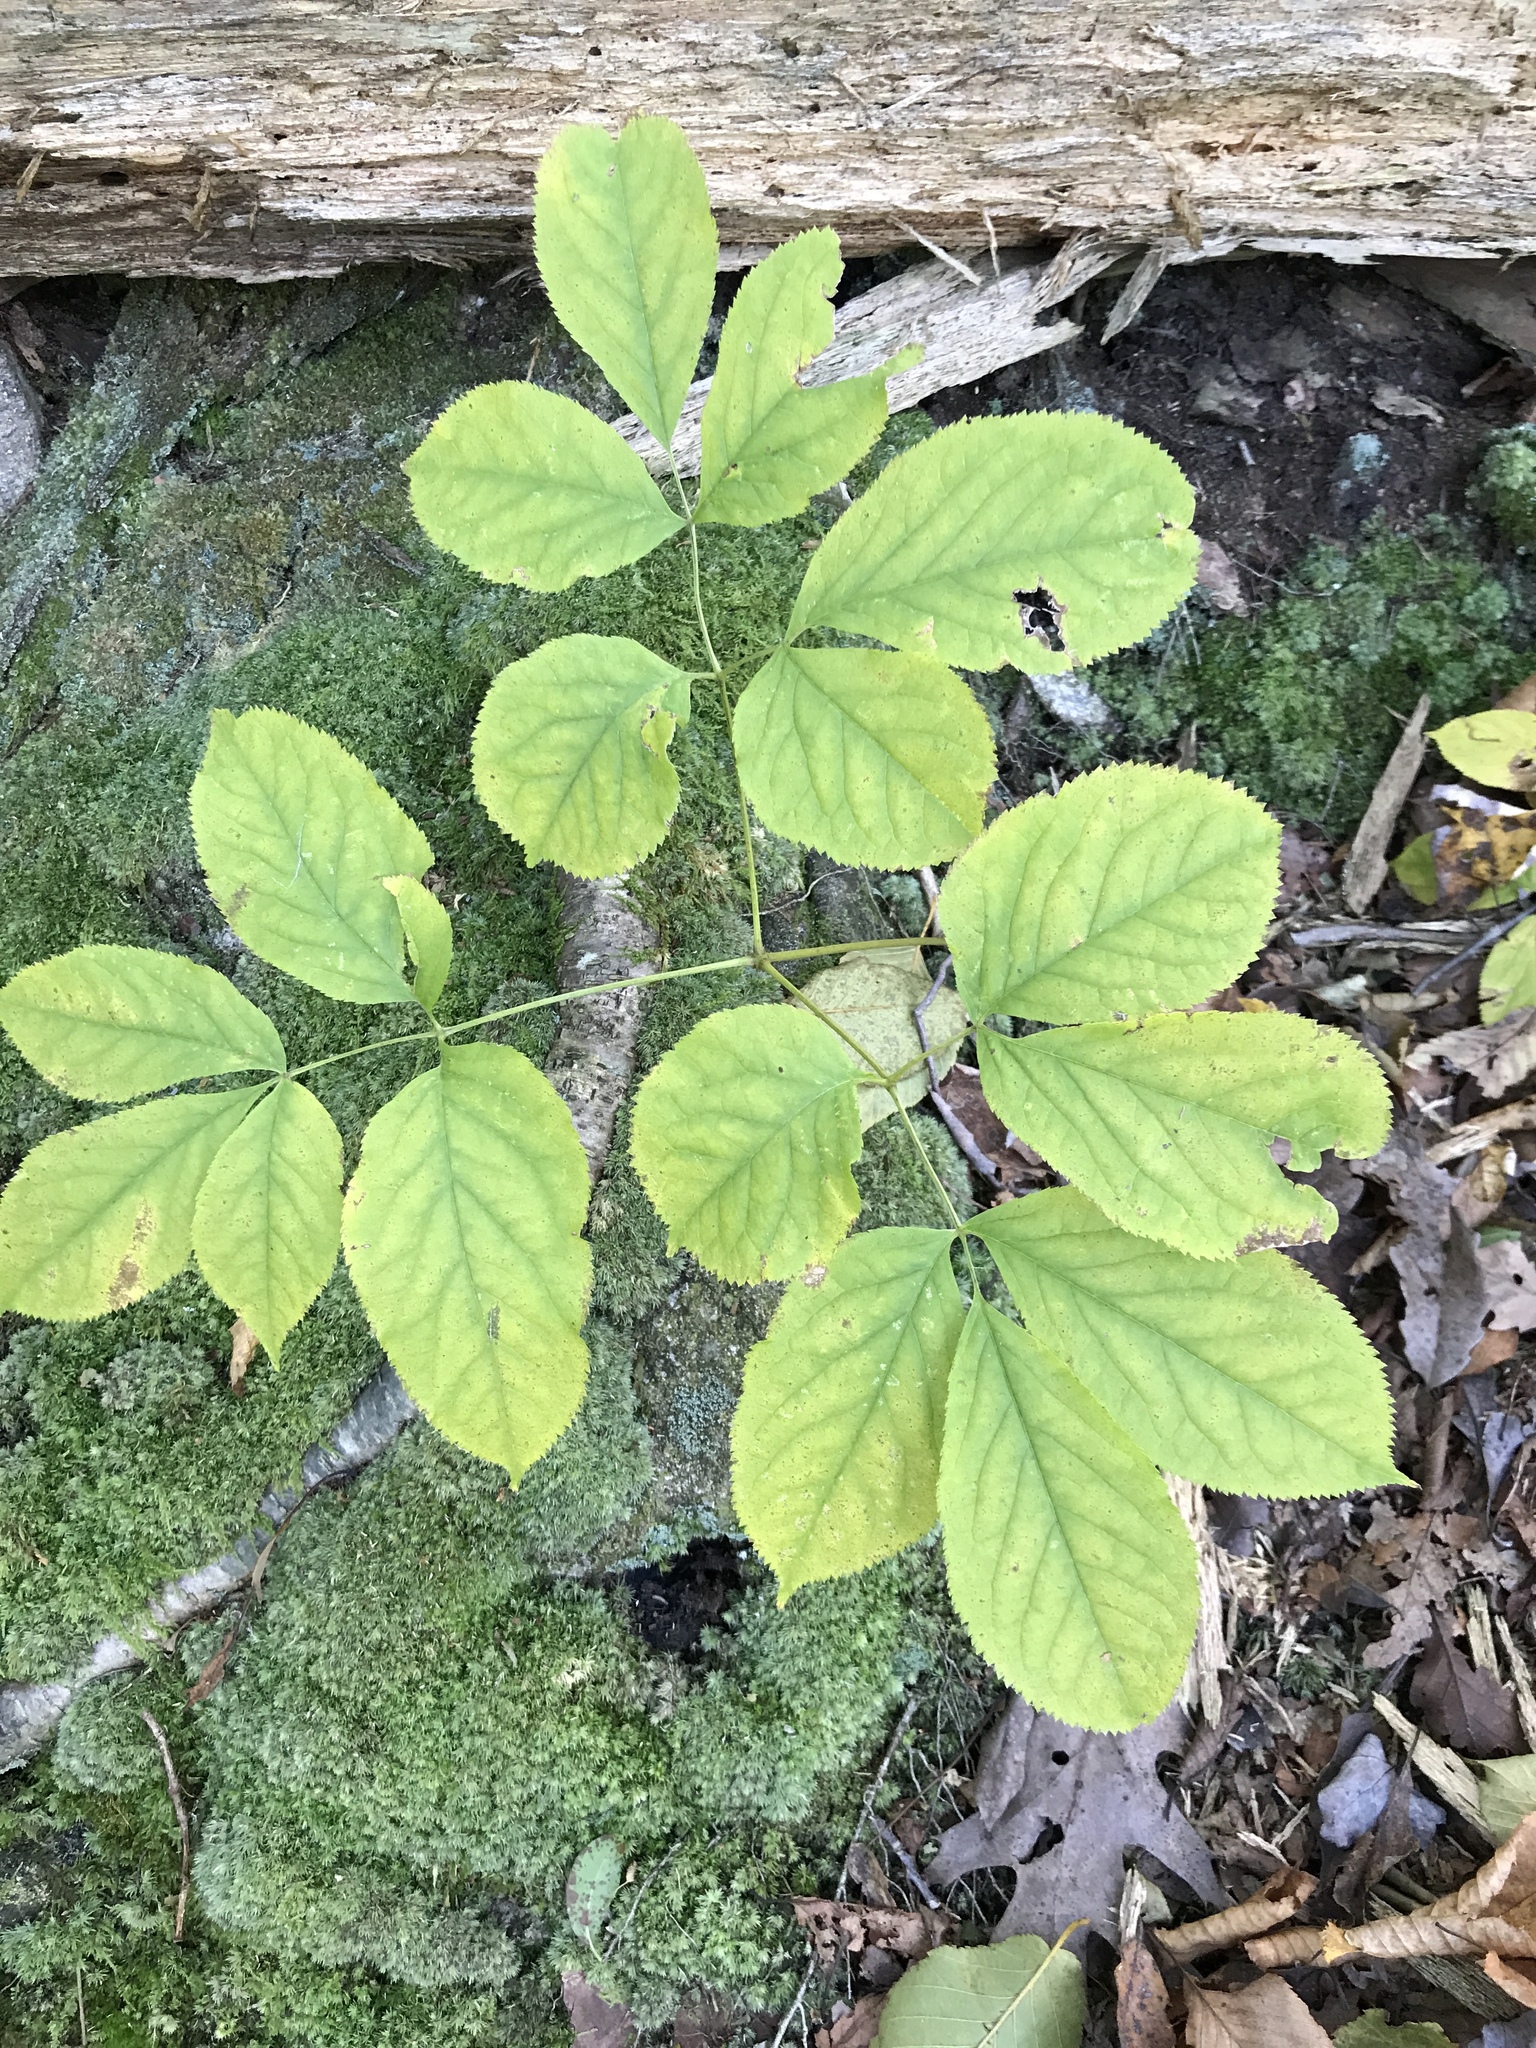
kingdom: Plantae
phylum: Tracheophyta
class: Magnoliopsida
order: Apiales
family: Araliaceae
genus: Aralia
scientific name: Aralia nudicaulis
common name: Wild sarsaparilla
